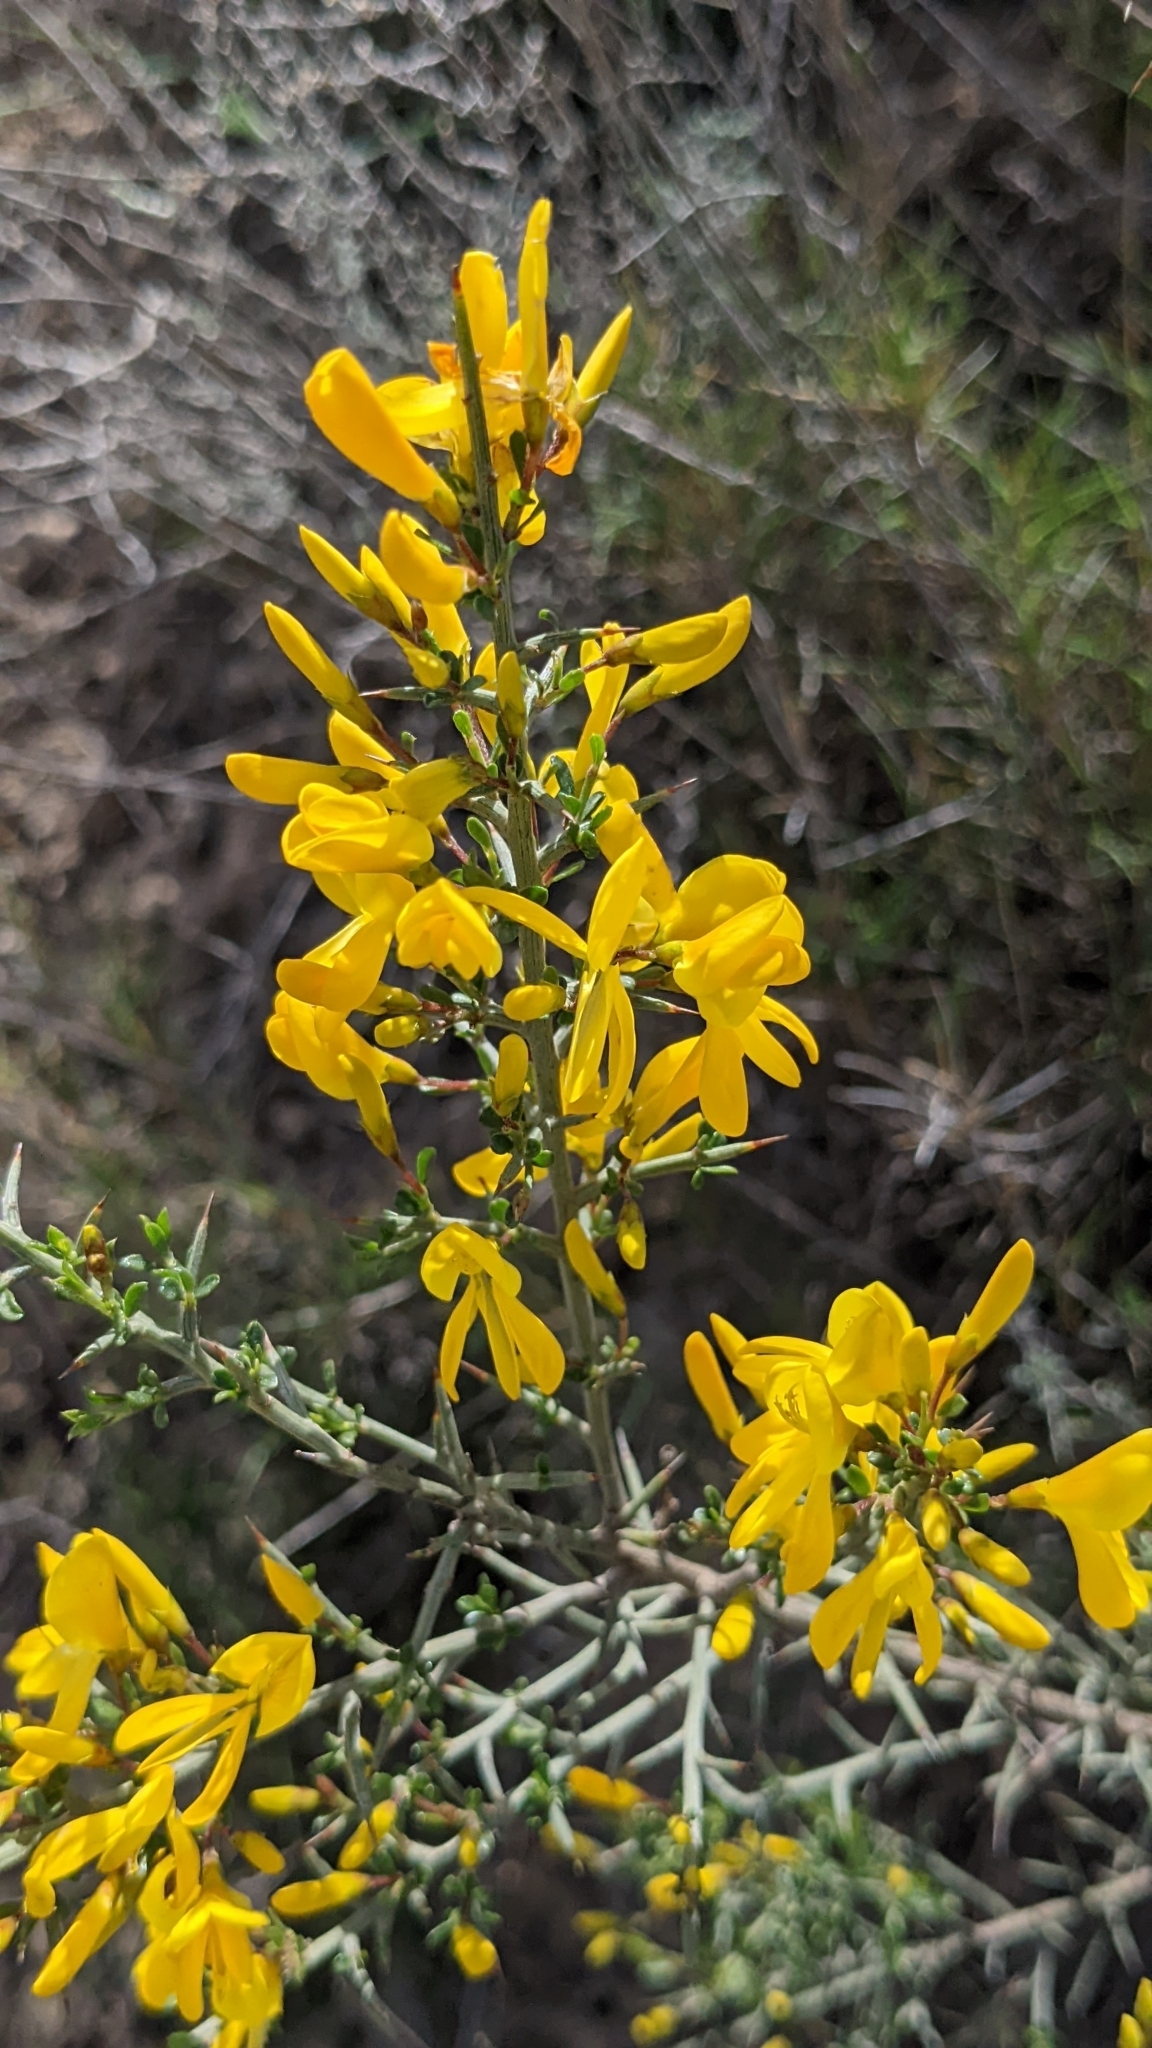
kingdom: Plantae
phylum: Tracheophyta
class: Magnoliopsida
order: Fabales
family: Fabaceae
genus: Genista
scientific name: Genista scorpius
